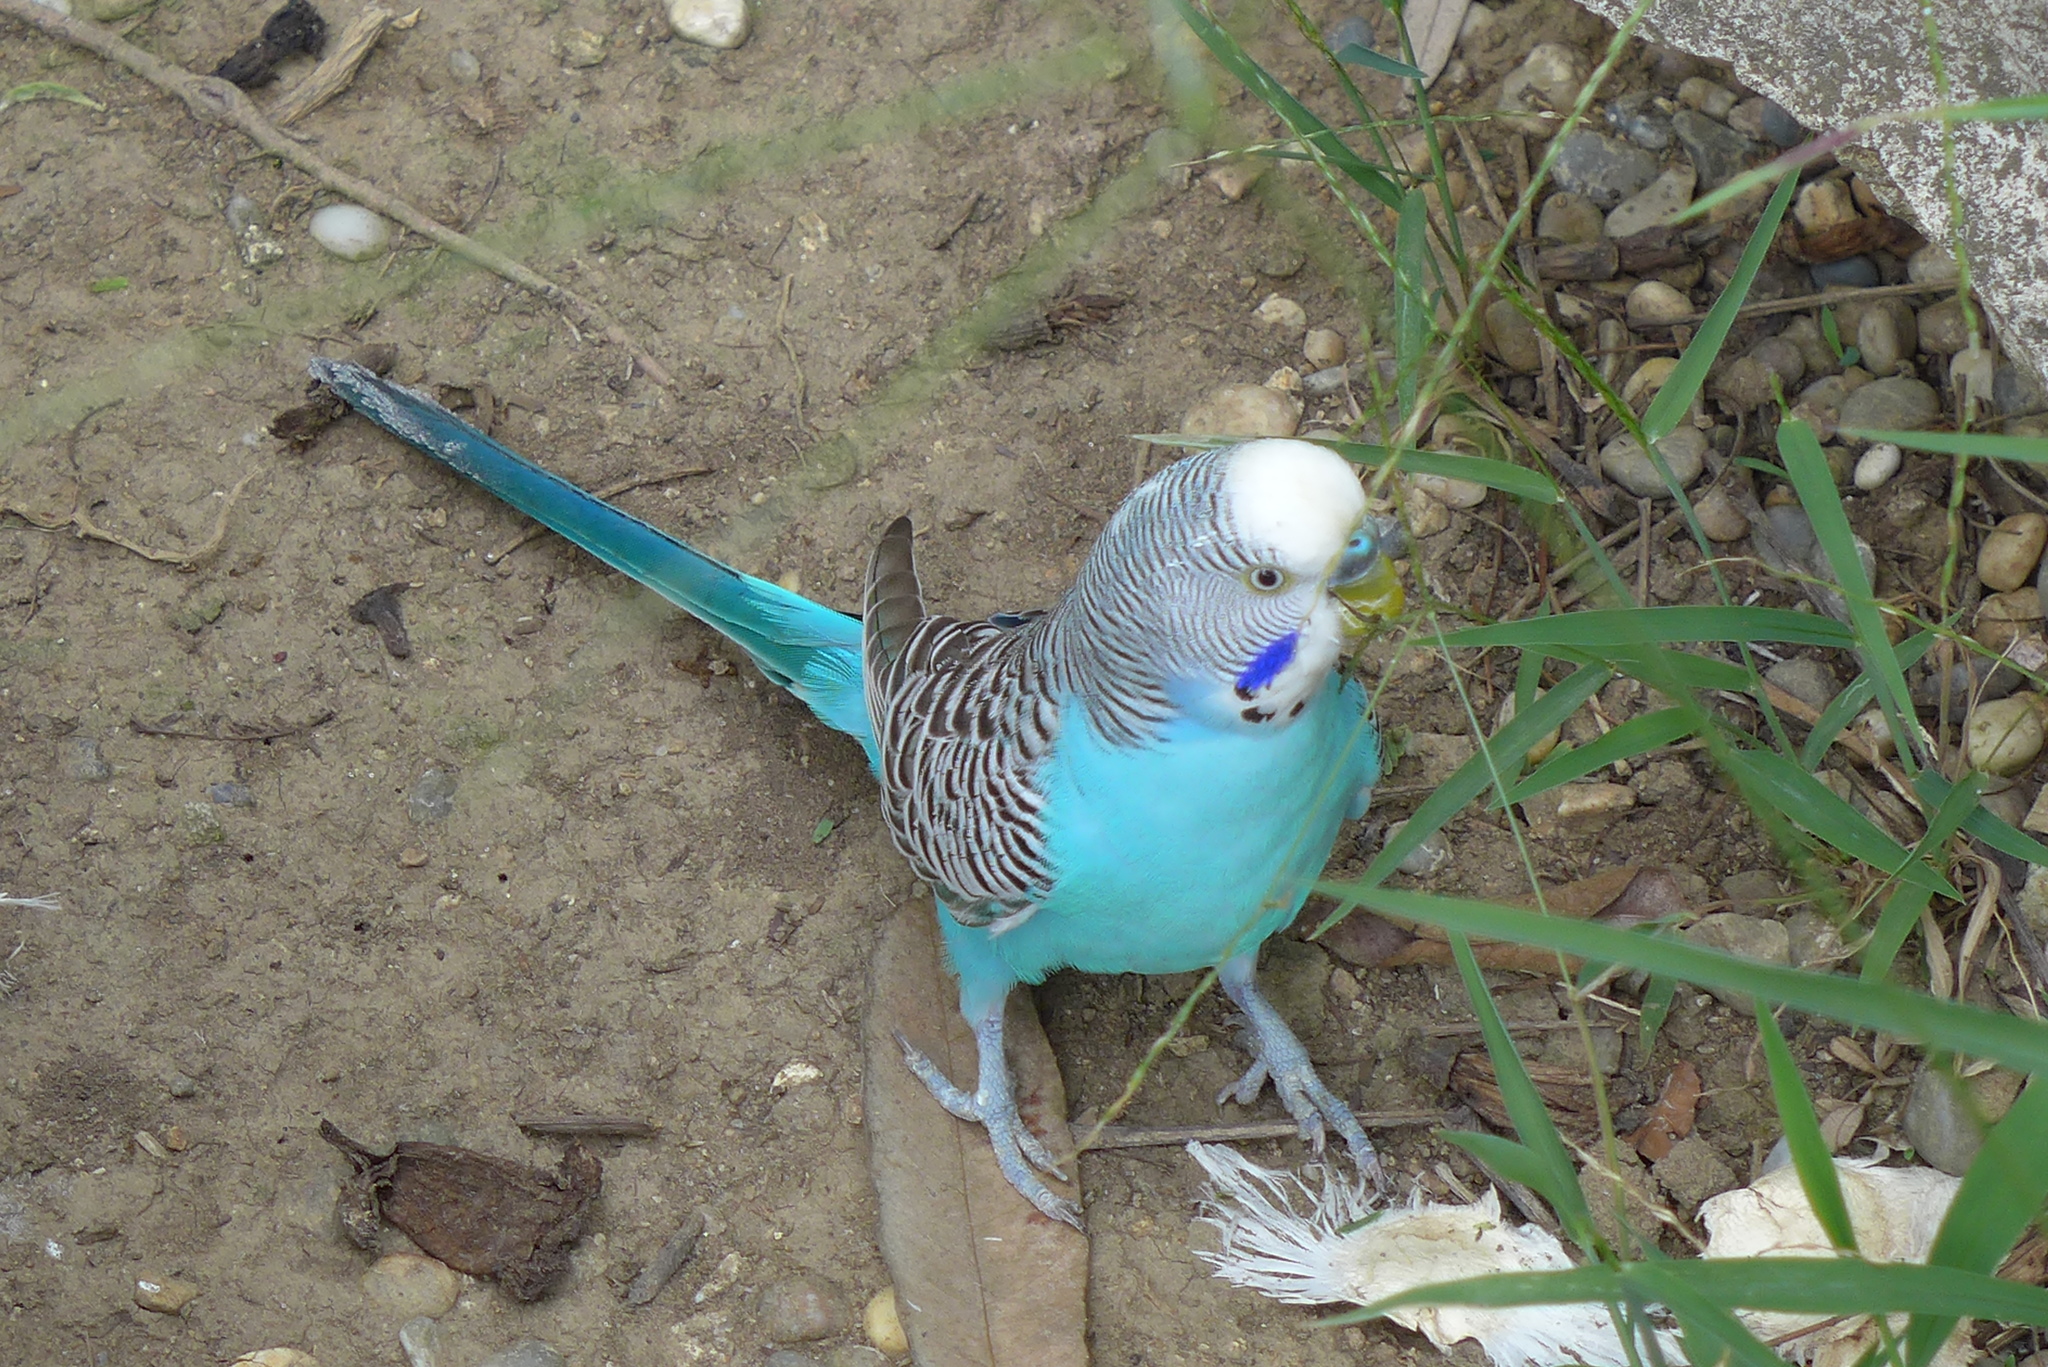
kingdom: Animalia
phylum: Chordata
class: Aves
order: Psittaciformes
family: Psittacidae
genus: Melopsittacus
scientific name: Melopsittacus undulatus
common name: Budgerigar
